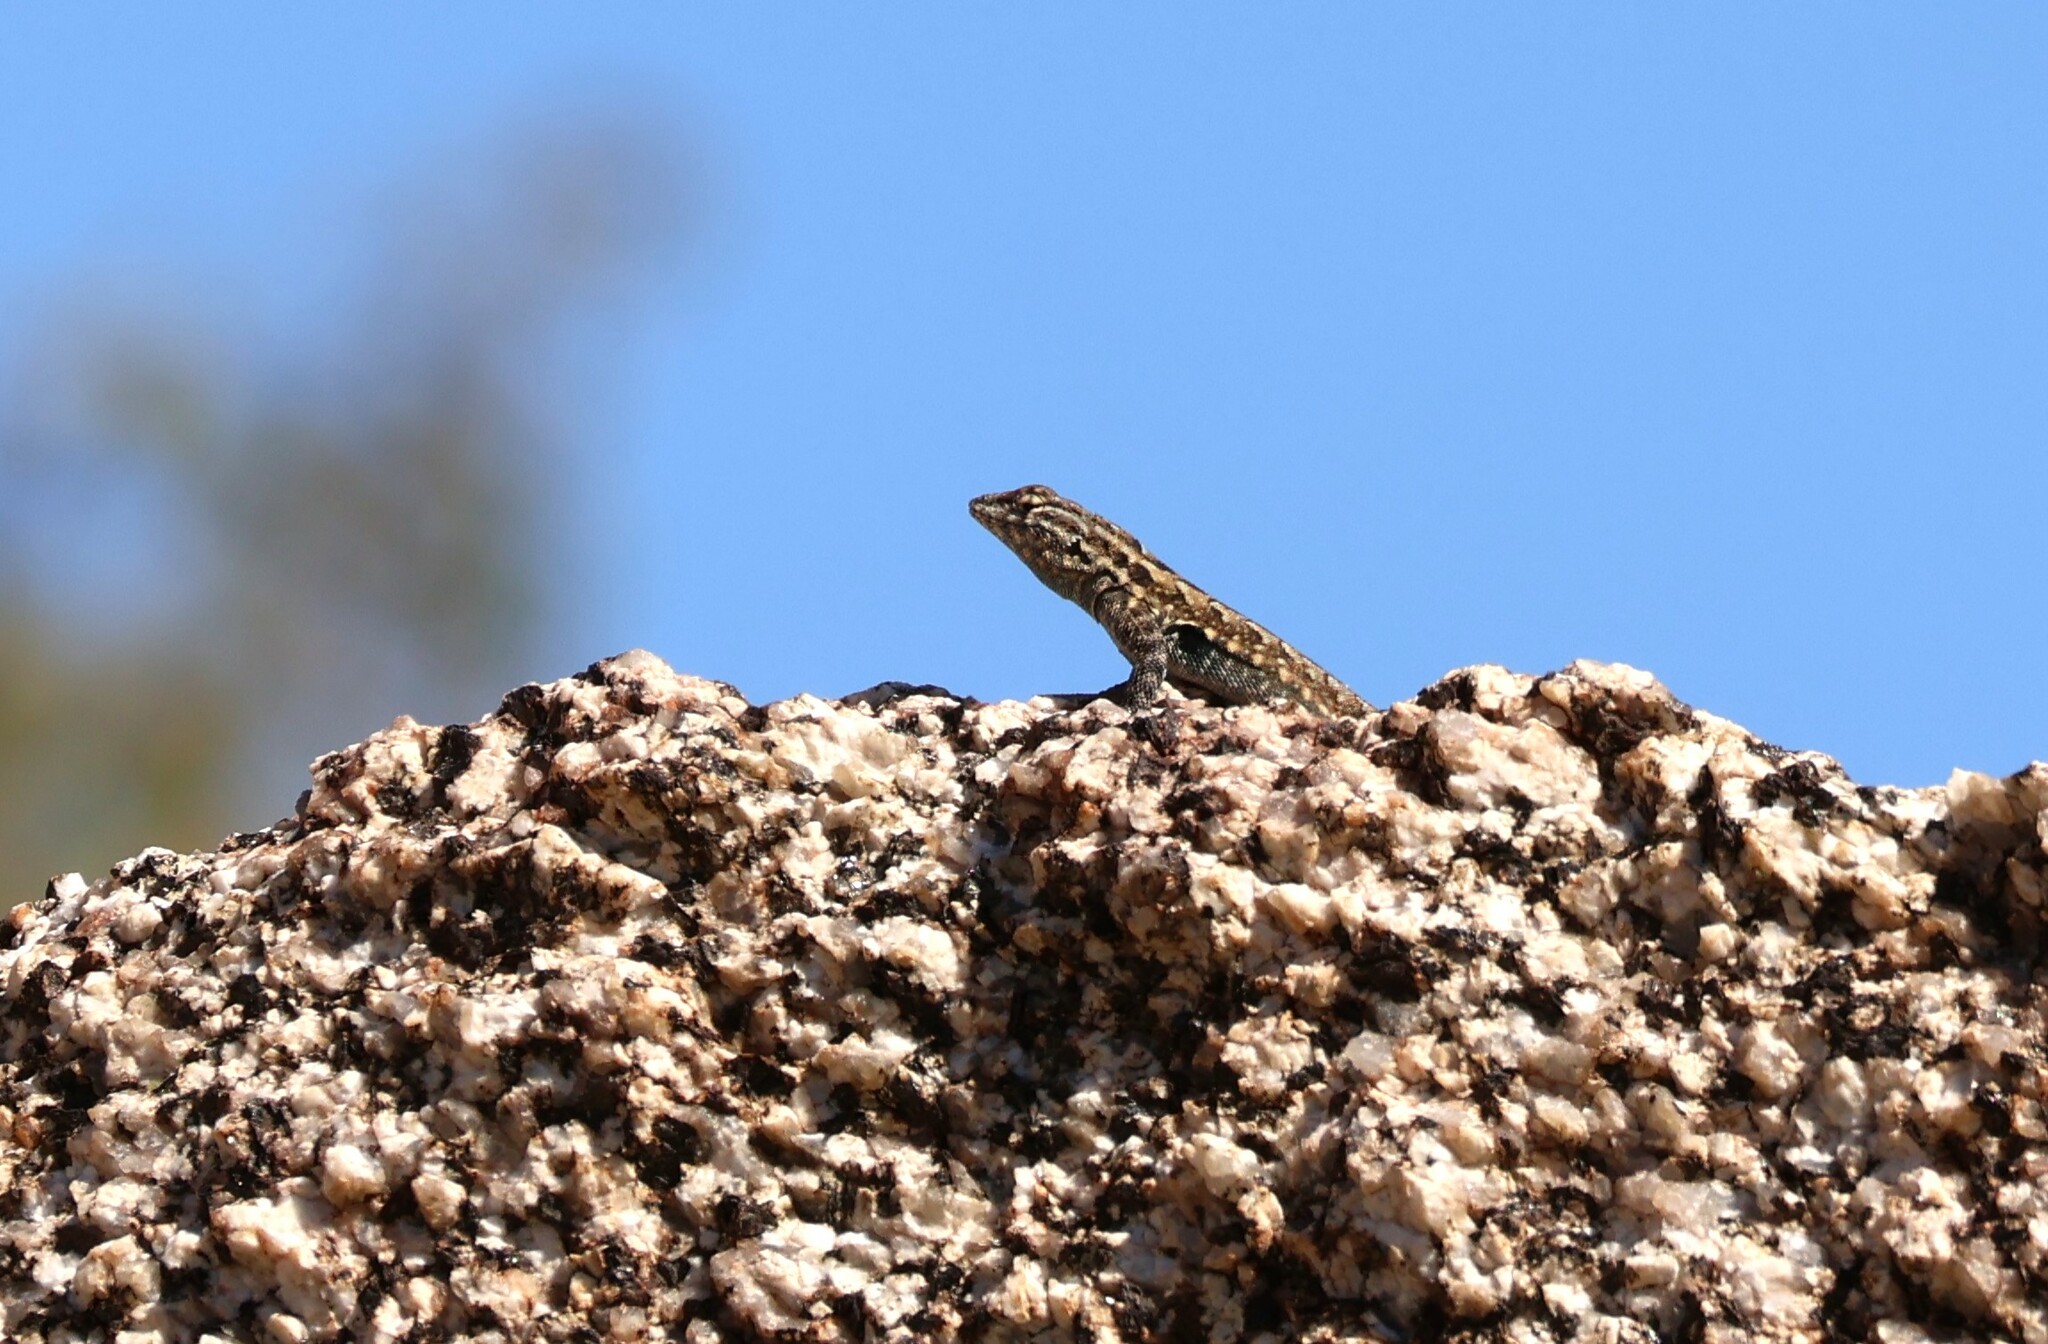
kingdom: Animalia
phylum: Chordata
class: Squamata
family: Phrynosomatidae
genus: Uta
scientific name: Uta stansburiana
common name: Side-blotched lizard
